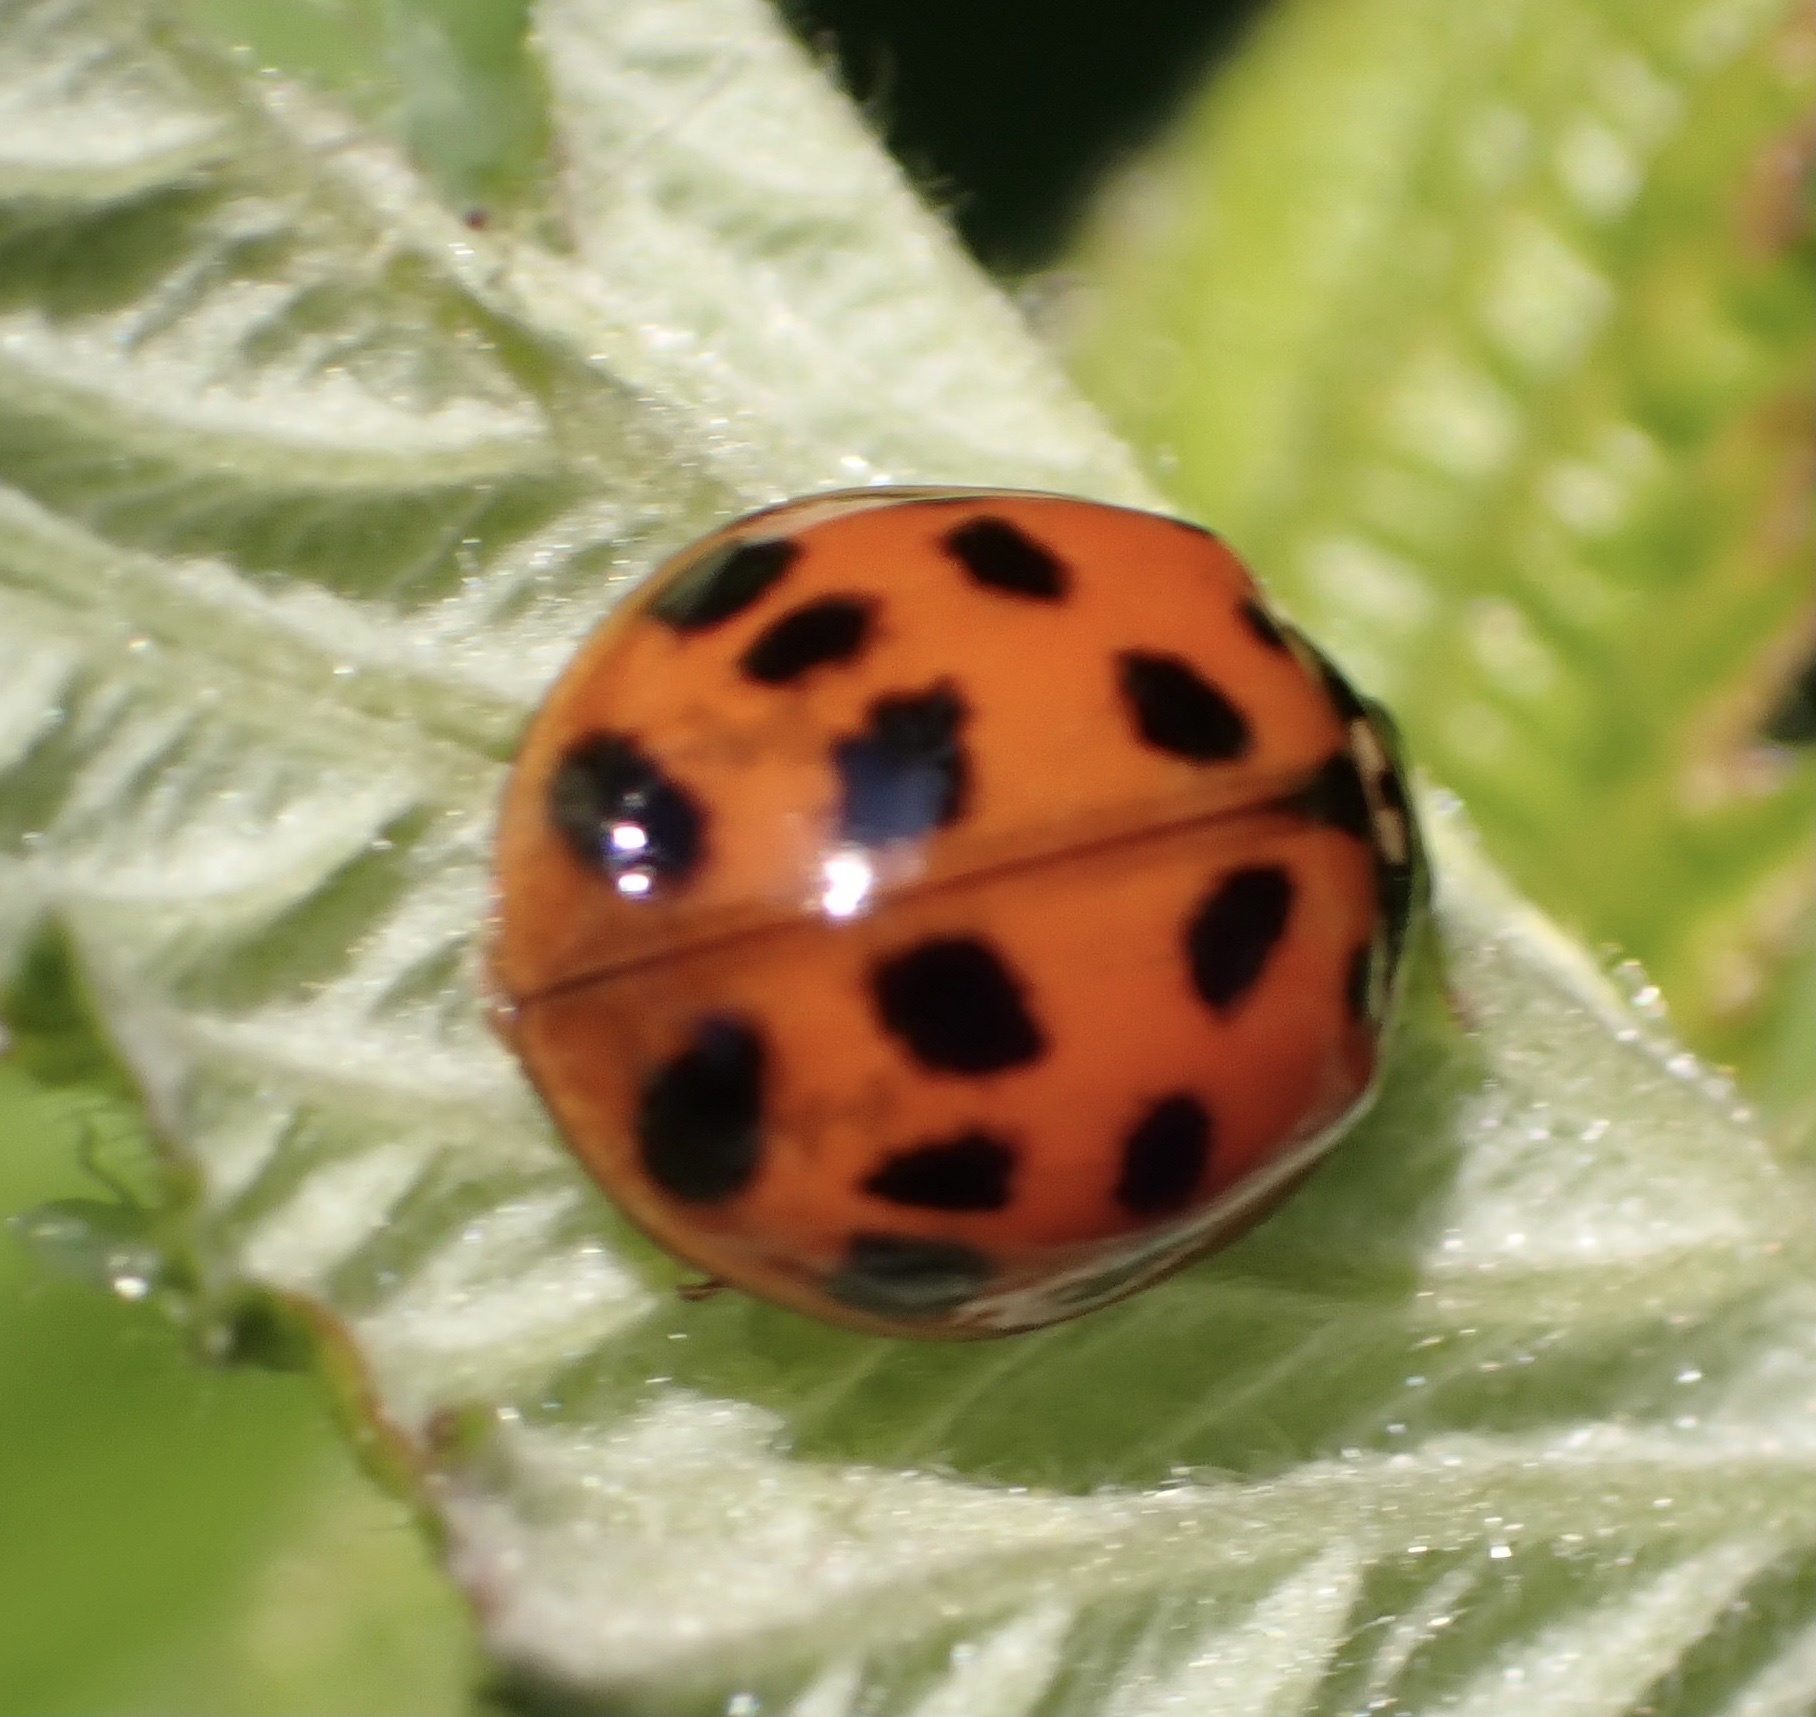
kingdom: Animalia
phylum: Arthropoda
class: Insecta
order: Coleoptera
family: Coccinellidae
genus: Harmonia
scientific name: Harmonia axyridis
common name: Harlequin ladybird
